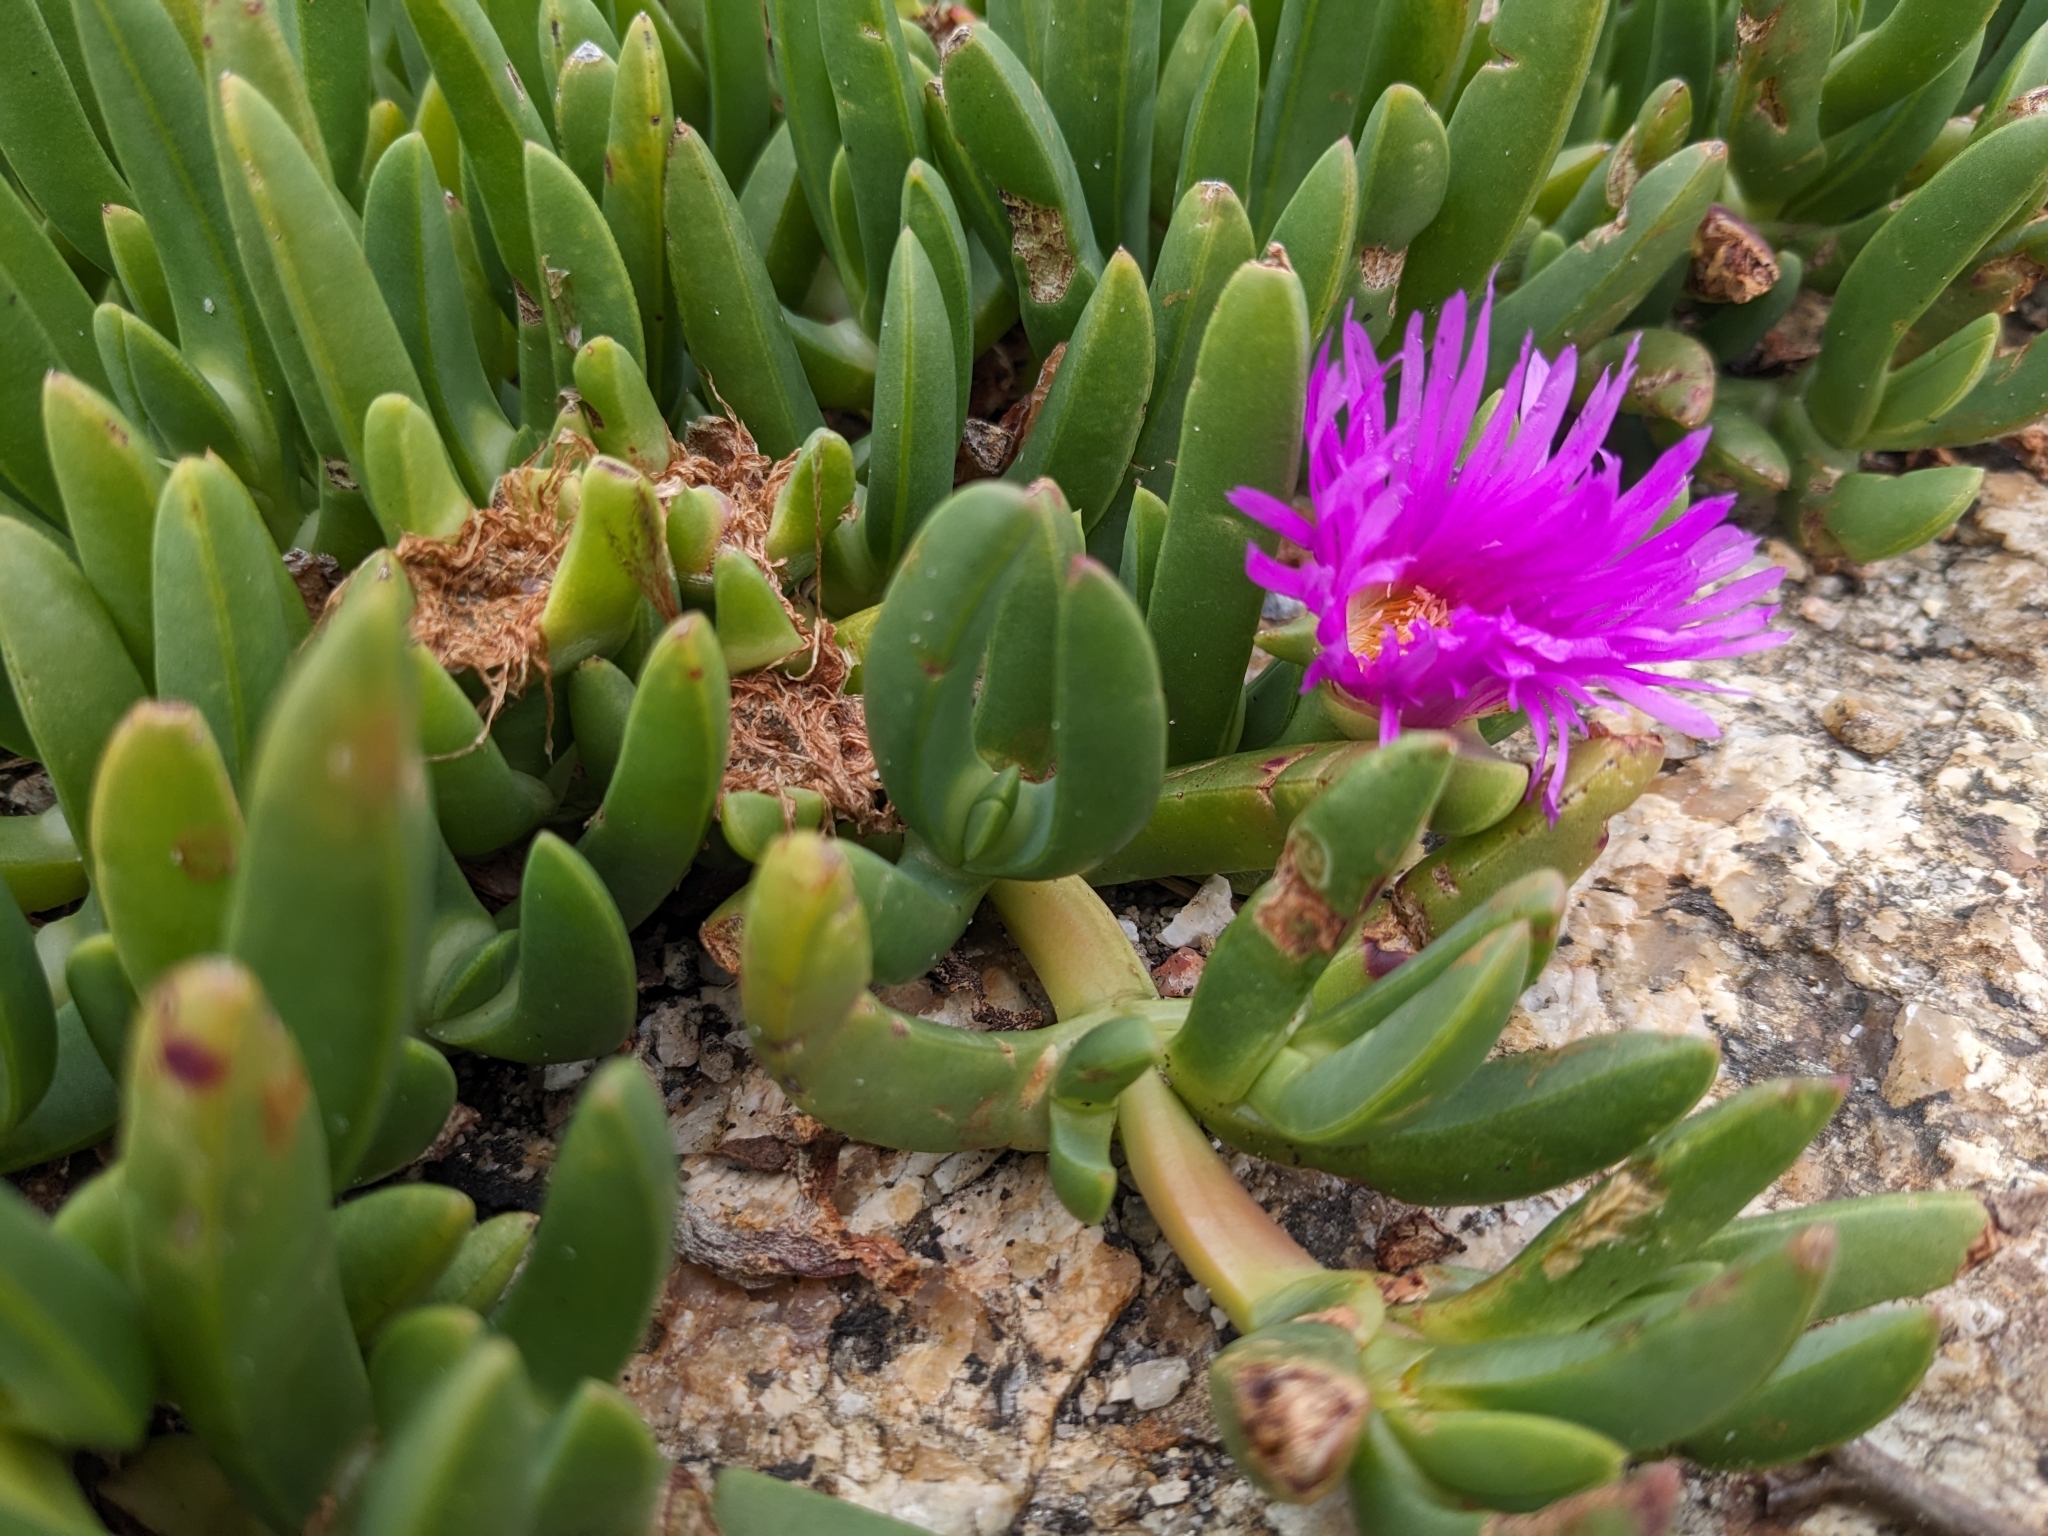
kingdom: Plantae
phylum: Tracheophyta
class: Magnoliopsida
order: Caryophyllales
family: Aizoaceae
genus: Carpobrotus
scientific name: Carpobrotus rossii
